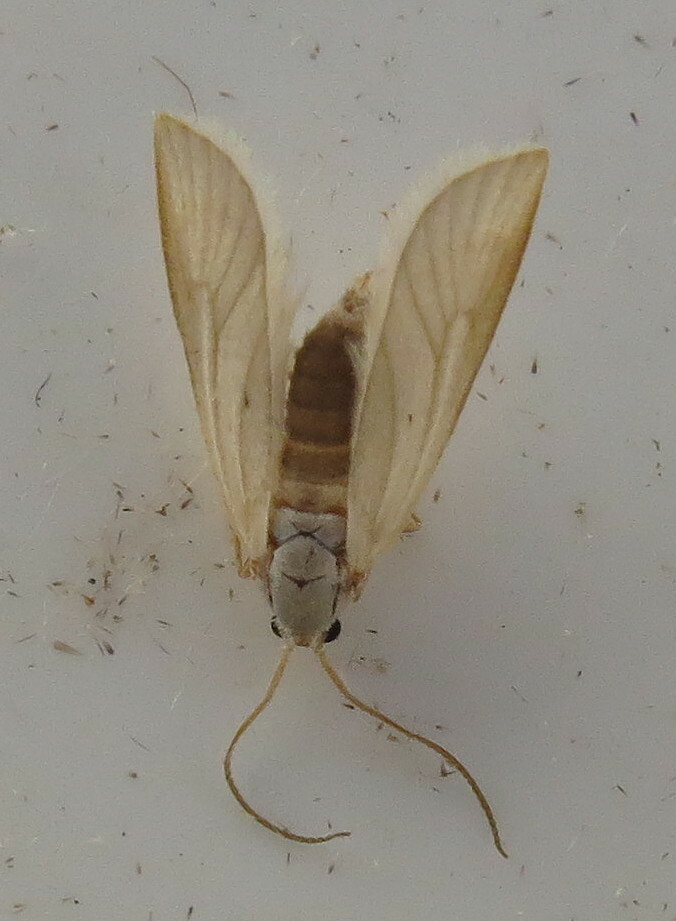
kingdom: Animalia
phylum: Arthropoda
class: Insecta
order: Lepidoptera
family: Crambidae
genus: Acentria
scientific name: Acentria ephemerella
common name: European water moth
